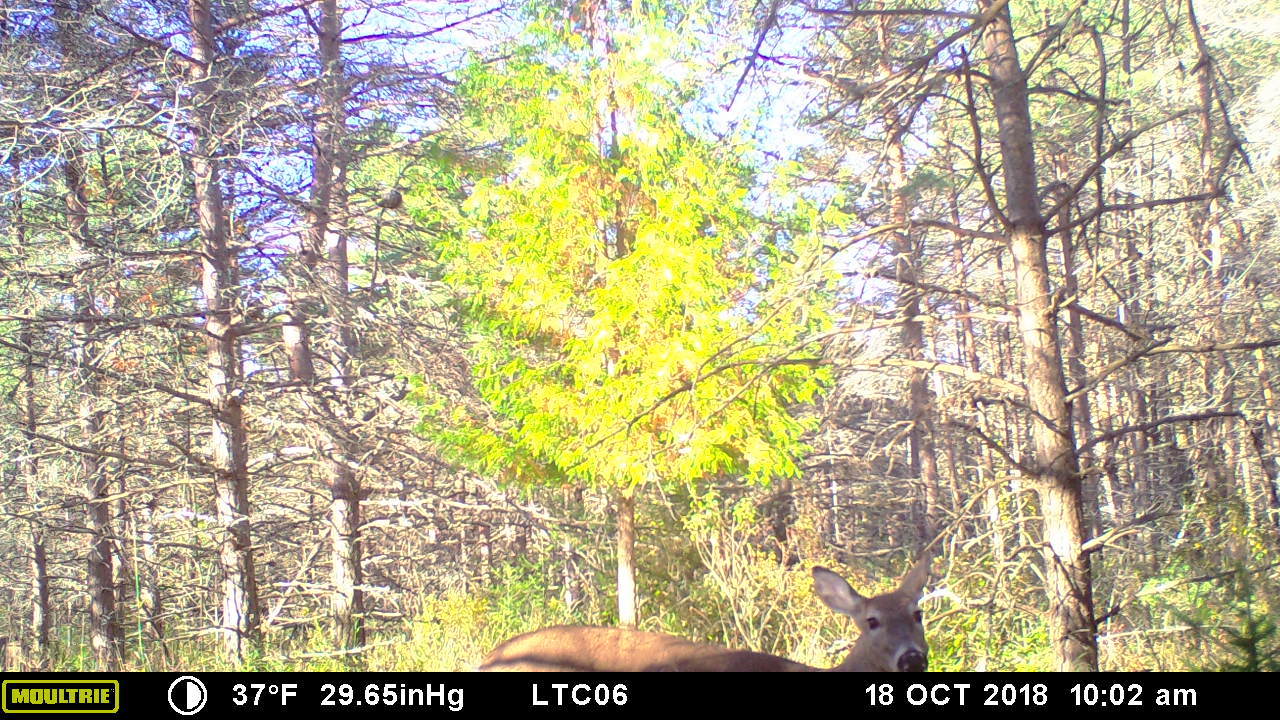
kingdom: Animalia
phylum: Chordata
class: Mammalia
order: Artiodactyla
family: Cervidae
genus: Odocoileus
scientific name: Odocoileus virginianus
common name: White-tailed deer
